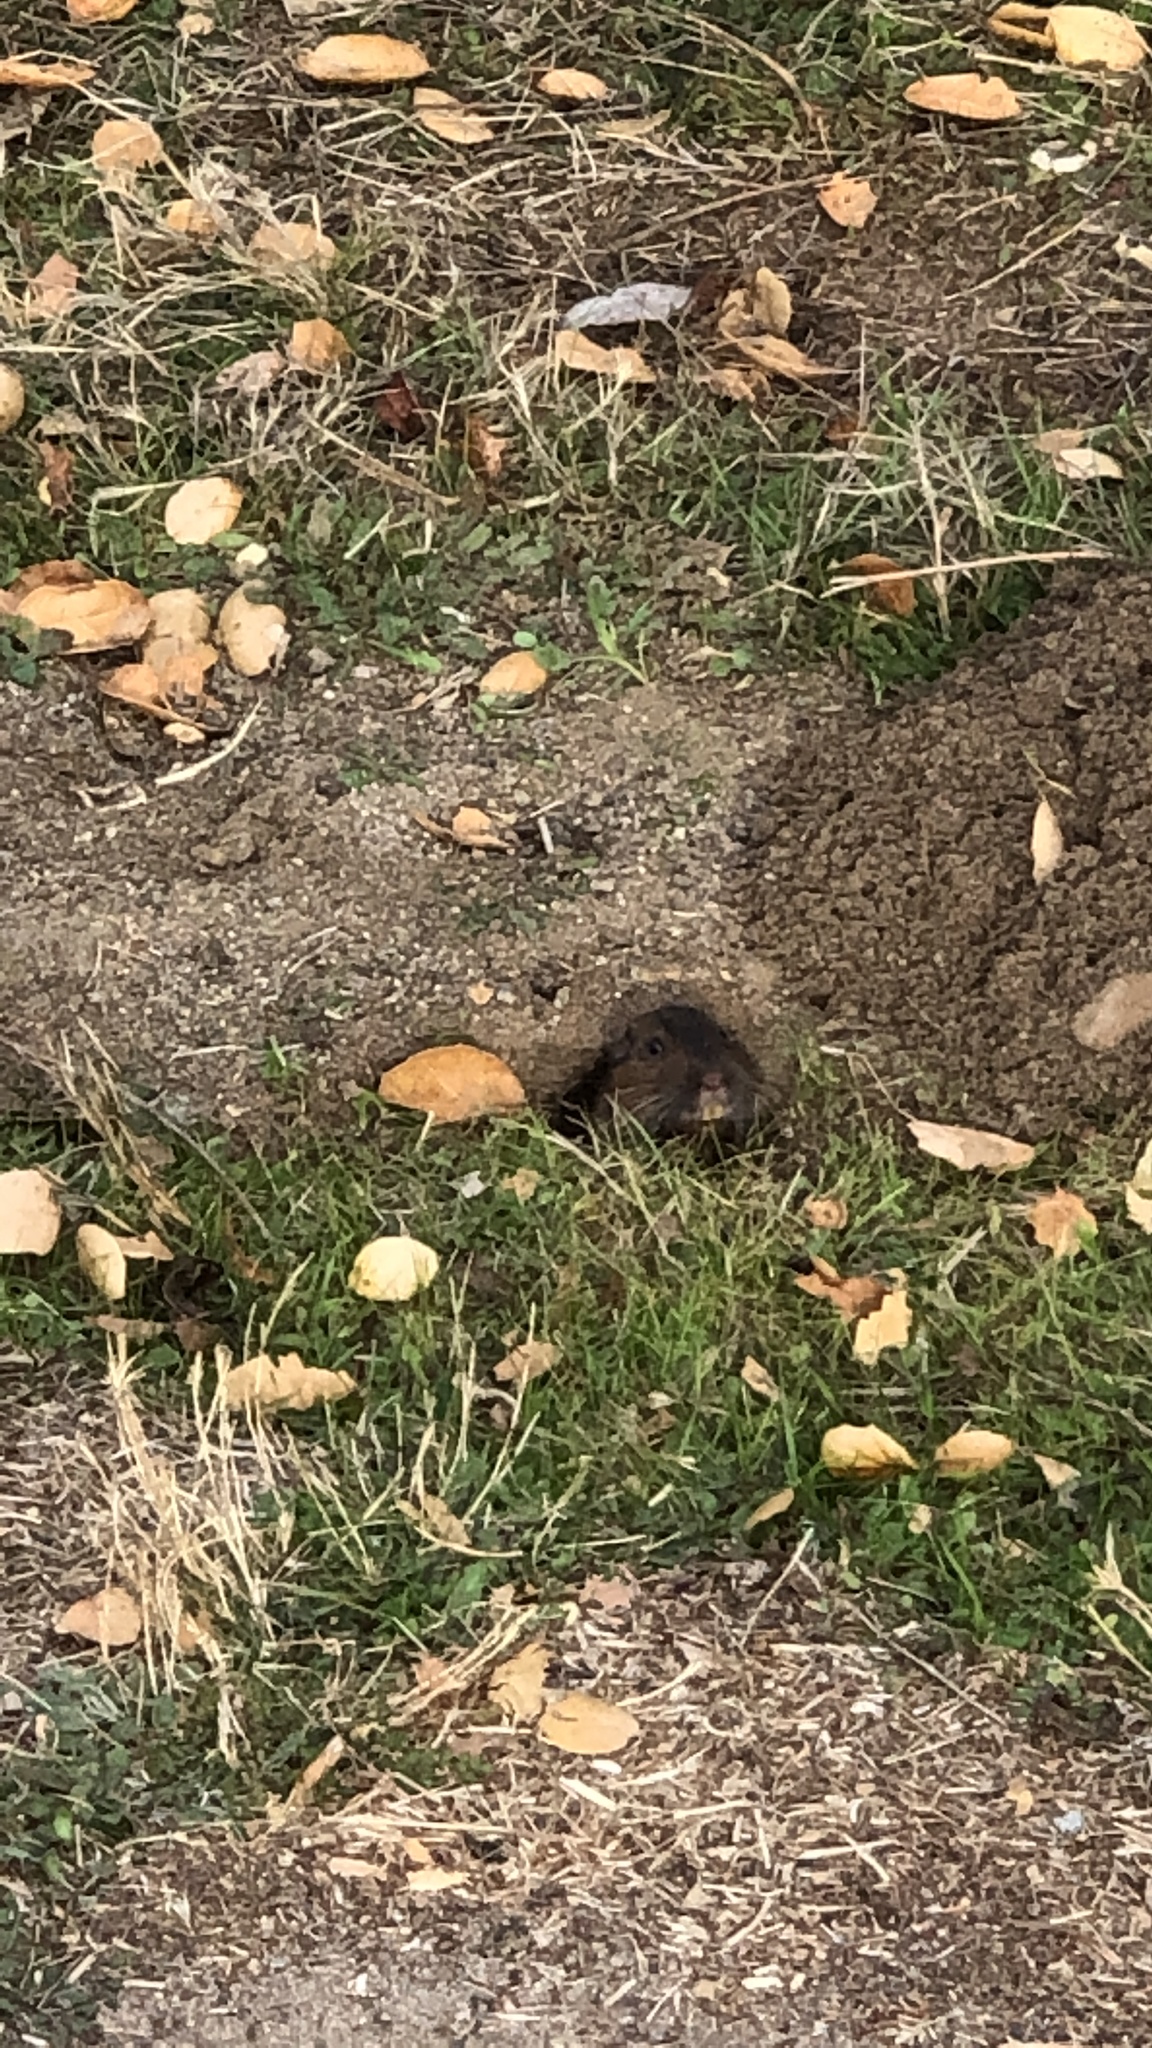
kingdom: Animalia
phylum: Chordata
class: Mammalia
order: Rodentia
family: Geomyidae
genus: Thomomys
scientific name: Thomomys bottae
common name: Botta's pocket gopher
